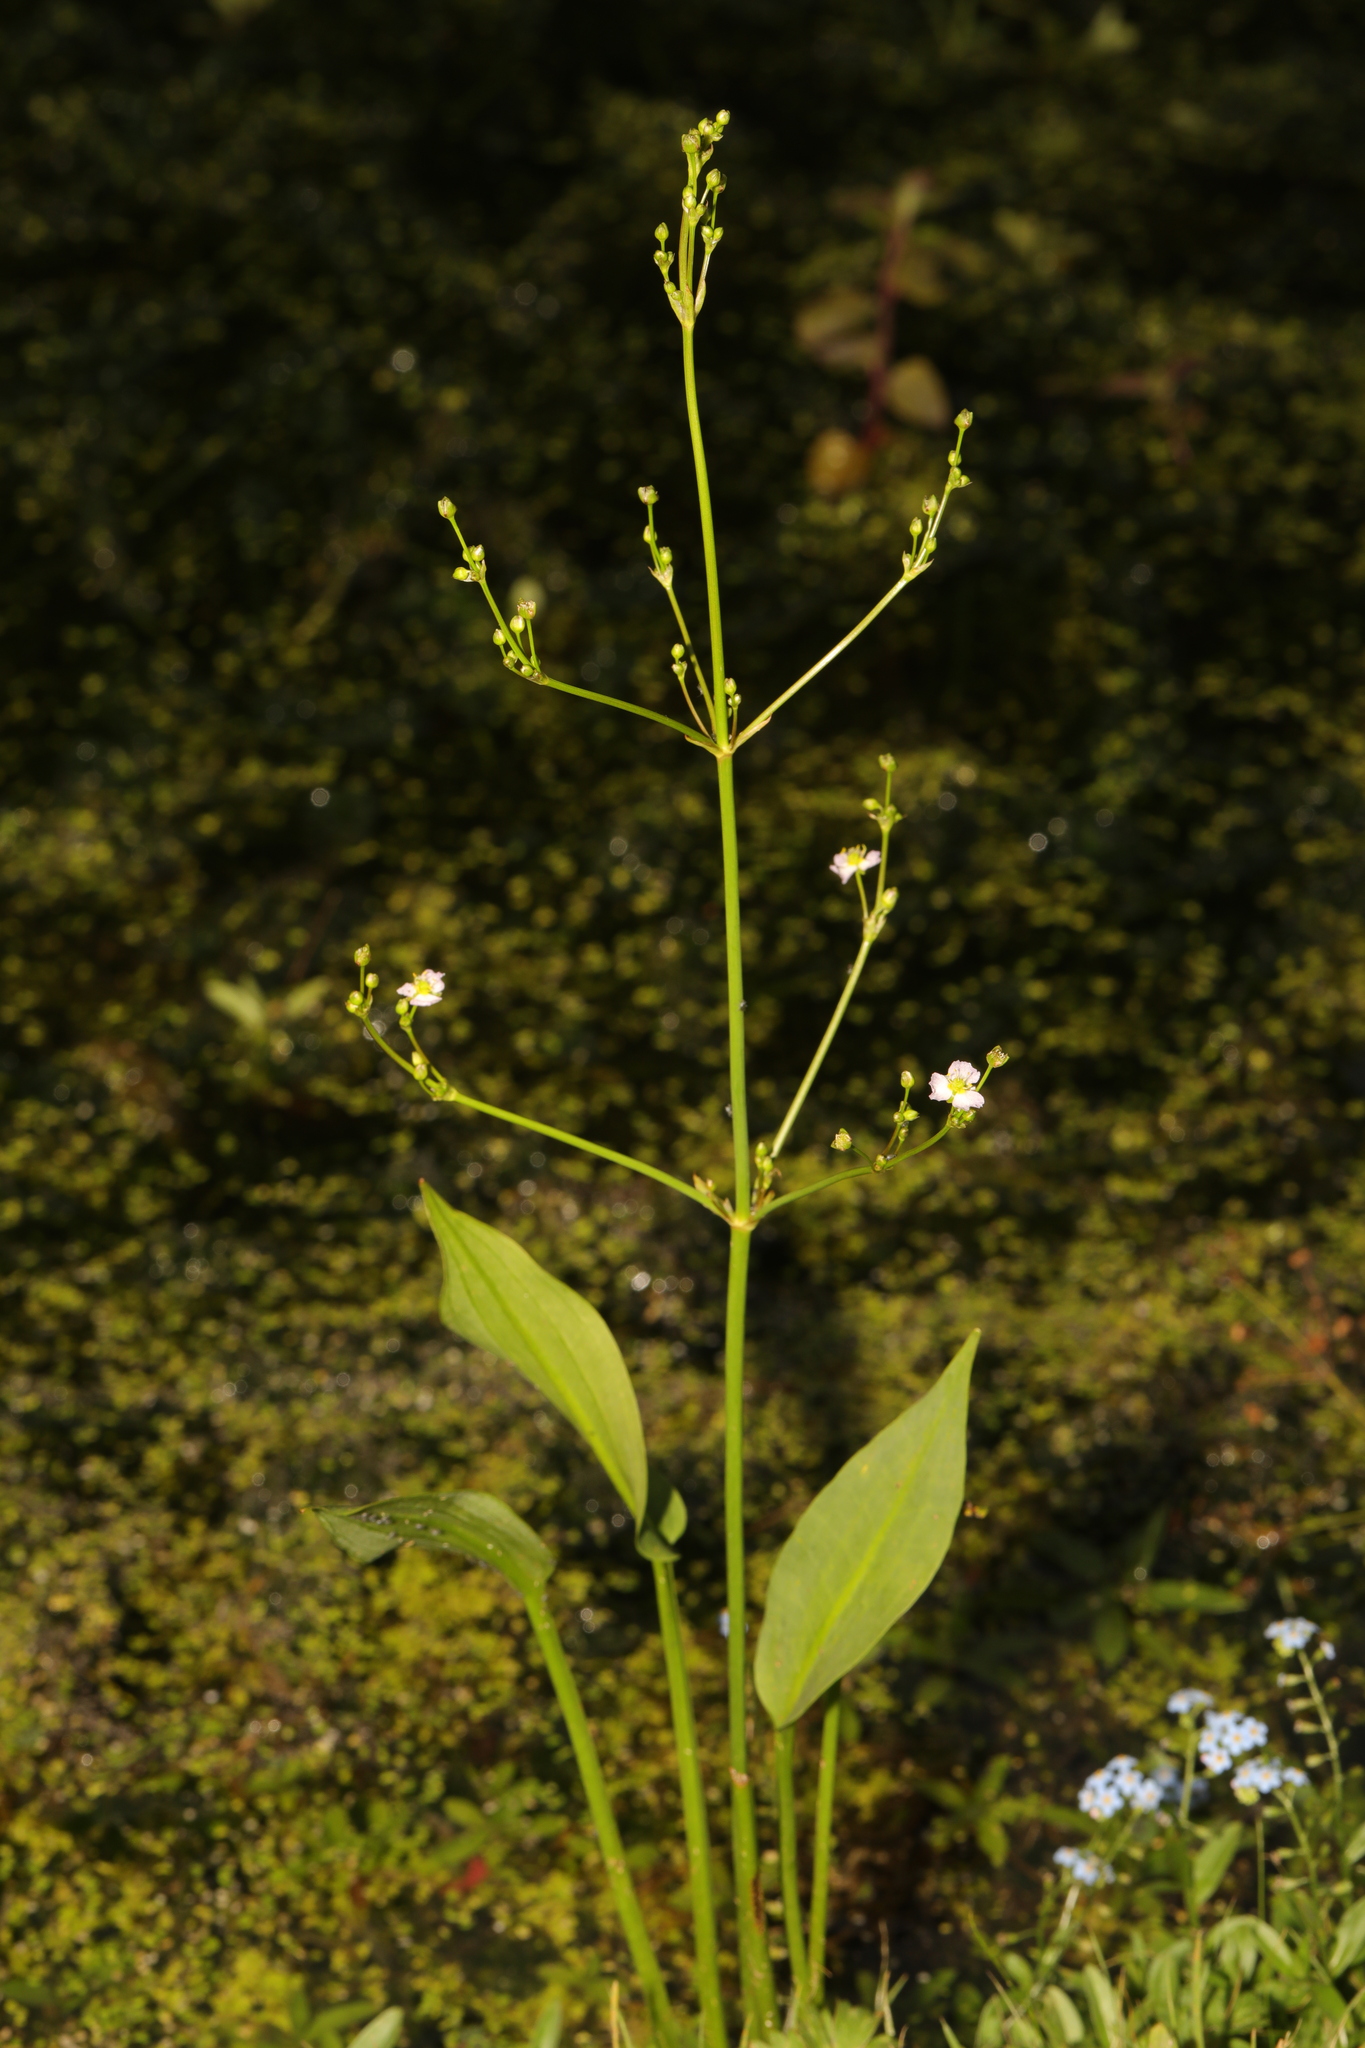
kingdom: Plantae
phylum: Tracheophyta
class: Liliopsida
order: Alismatales
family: Alismataceae
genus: Alisma
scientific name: Alisma plantago-aquatica
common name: Water-plantain
